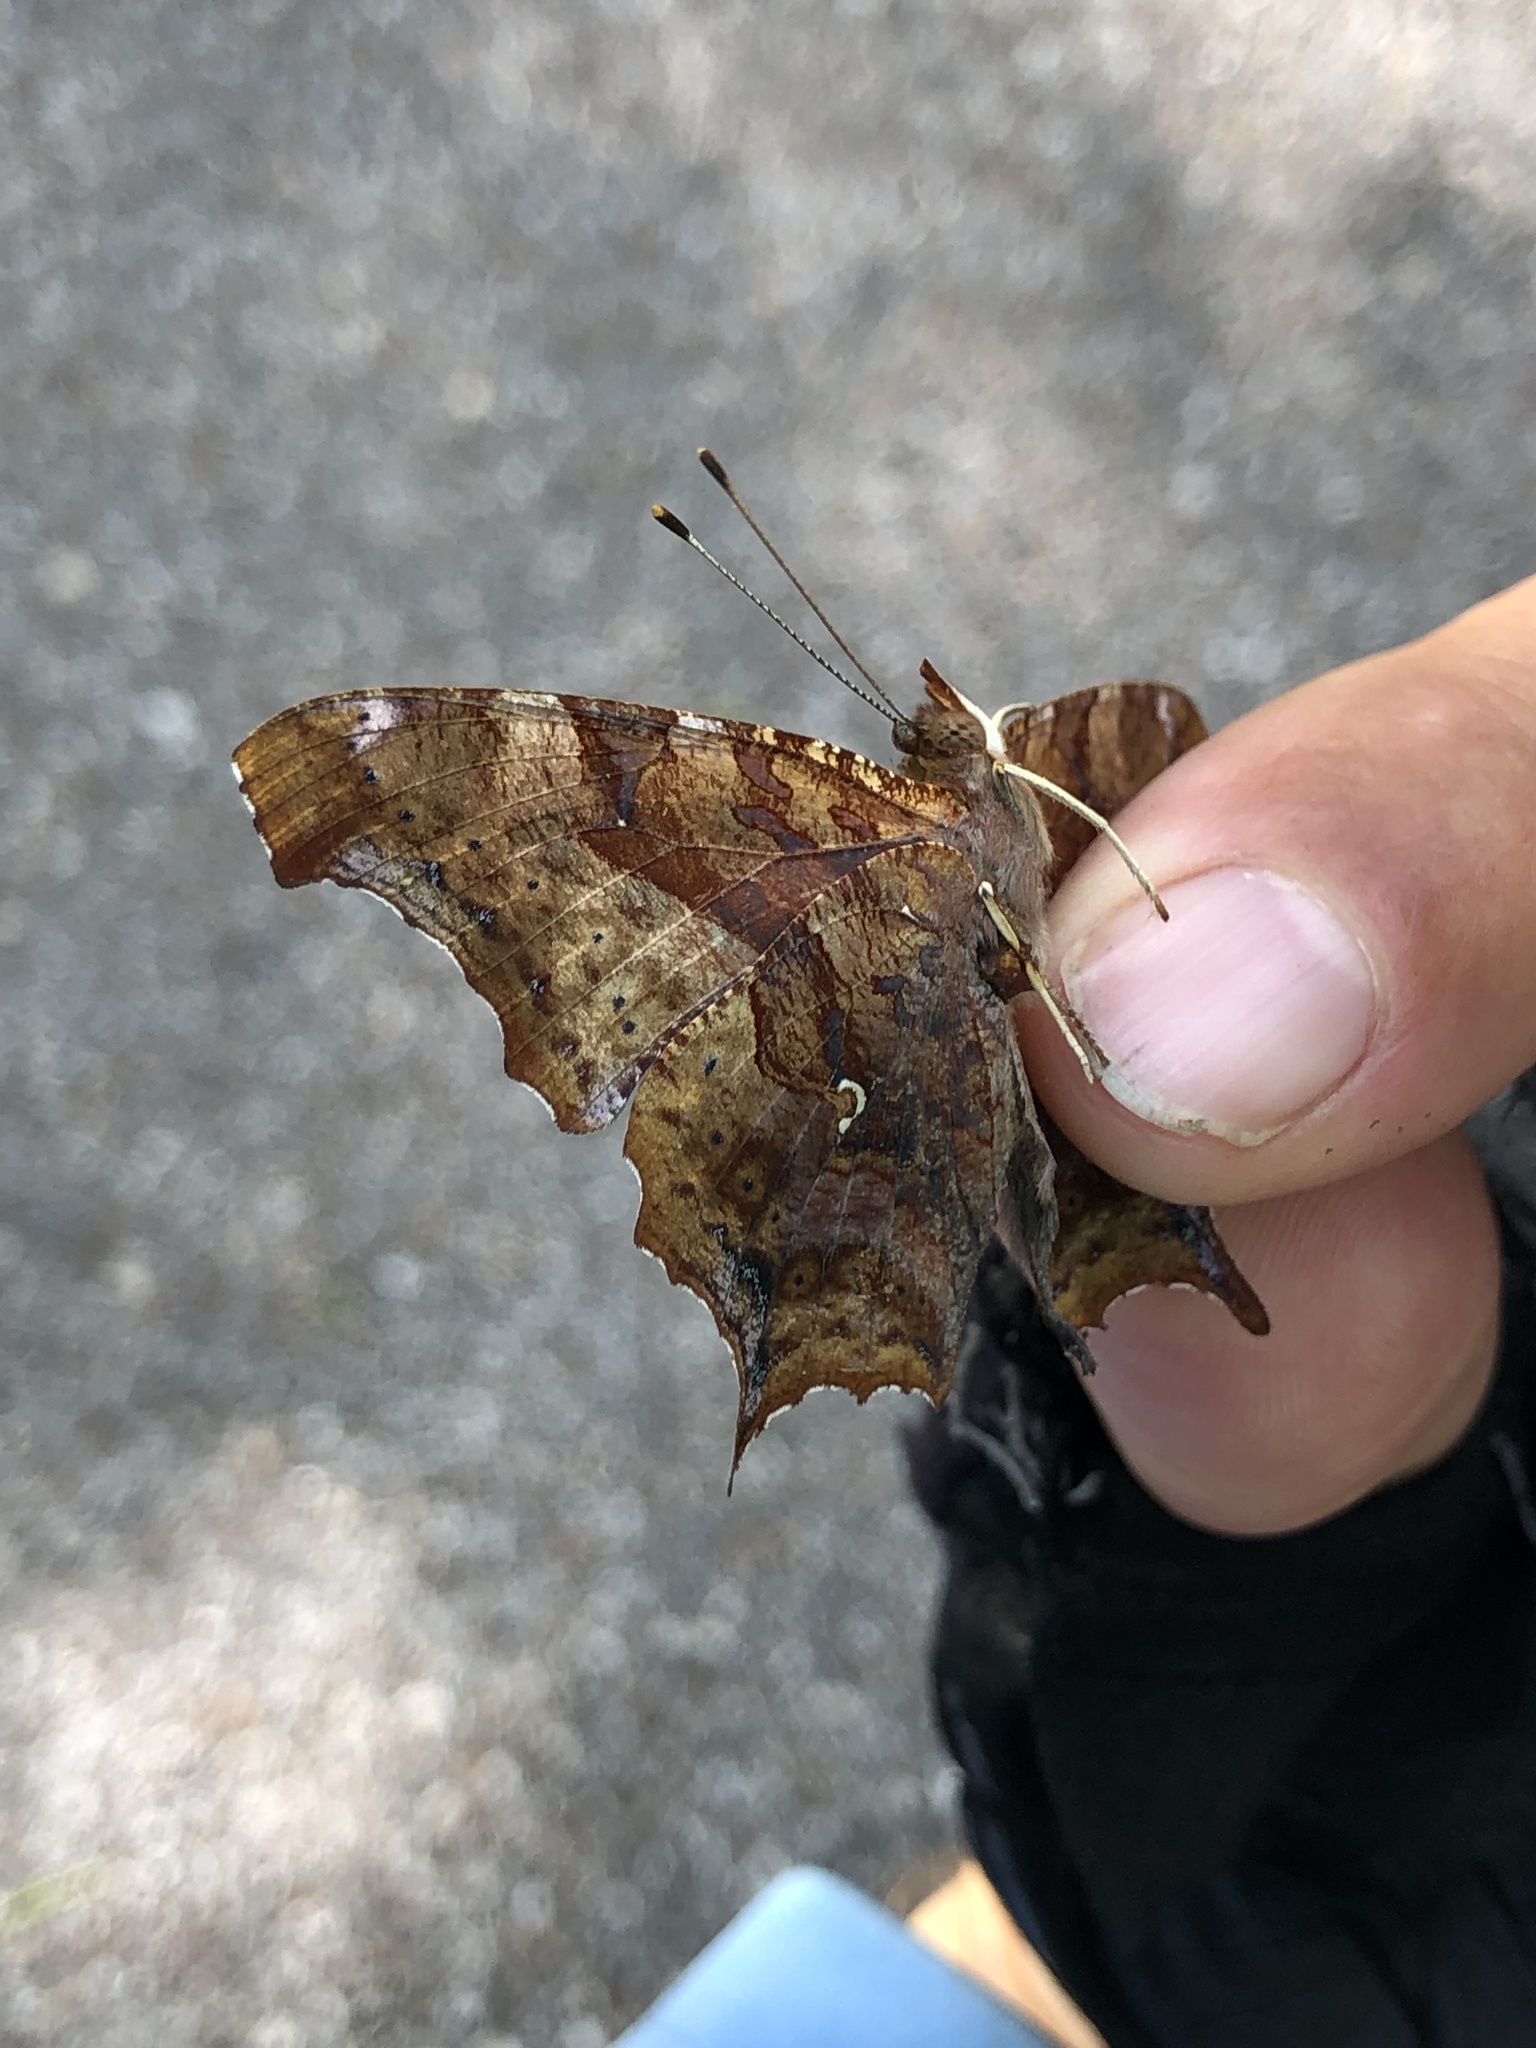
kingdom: Animalia
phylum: Arthropoda
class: Insecta
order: Lepidoptera
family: Nymphalidae
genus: Polygonia
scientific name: Polygonia interrogationis
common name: Question mark
